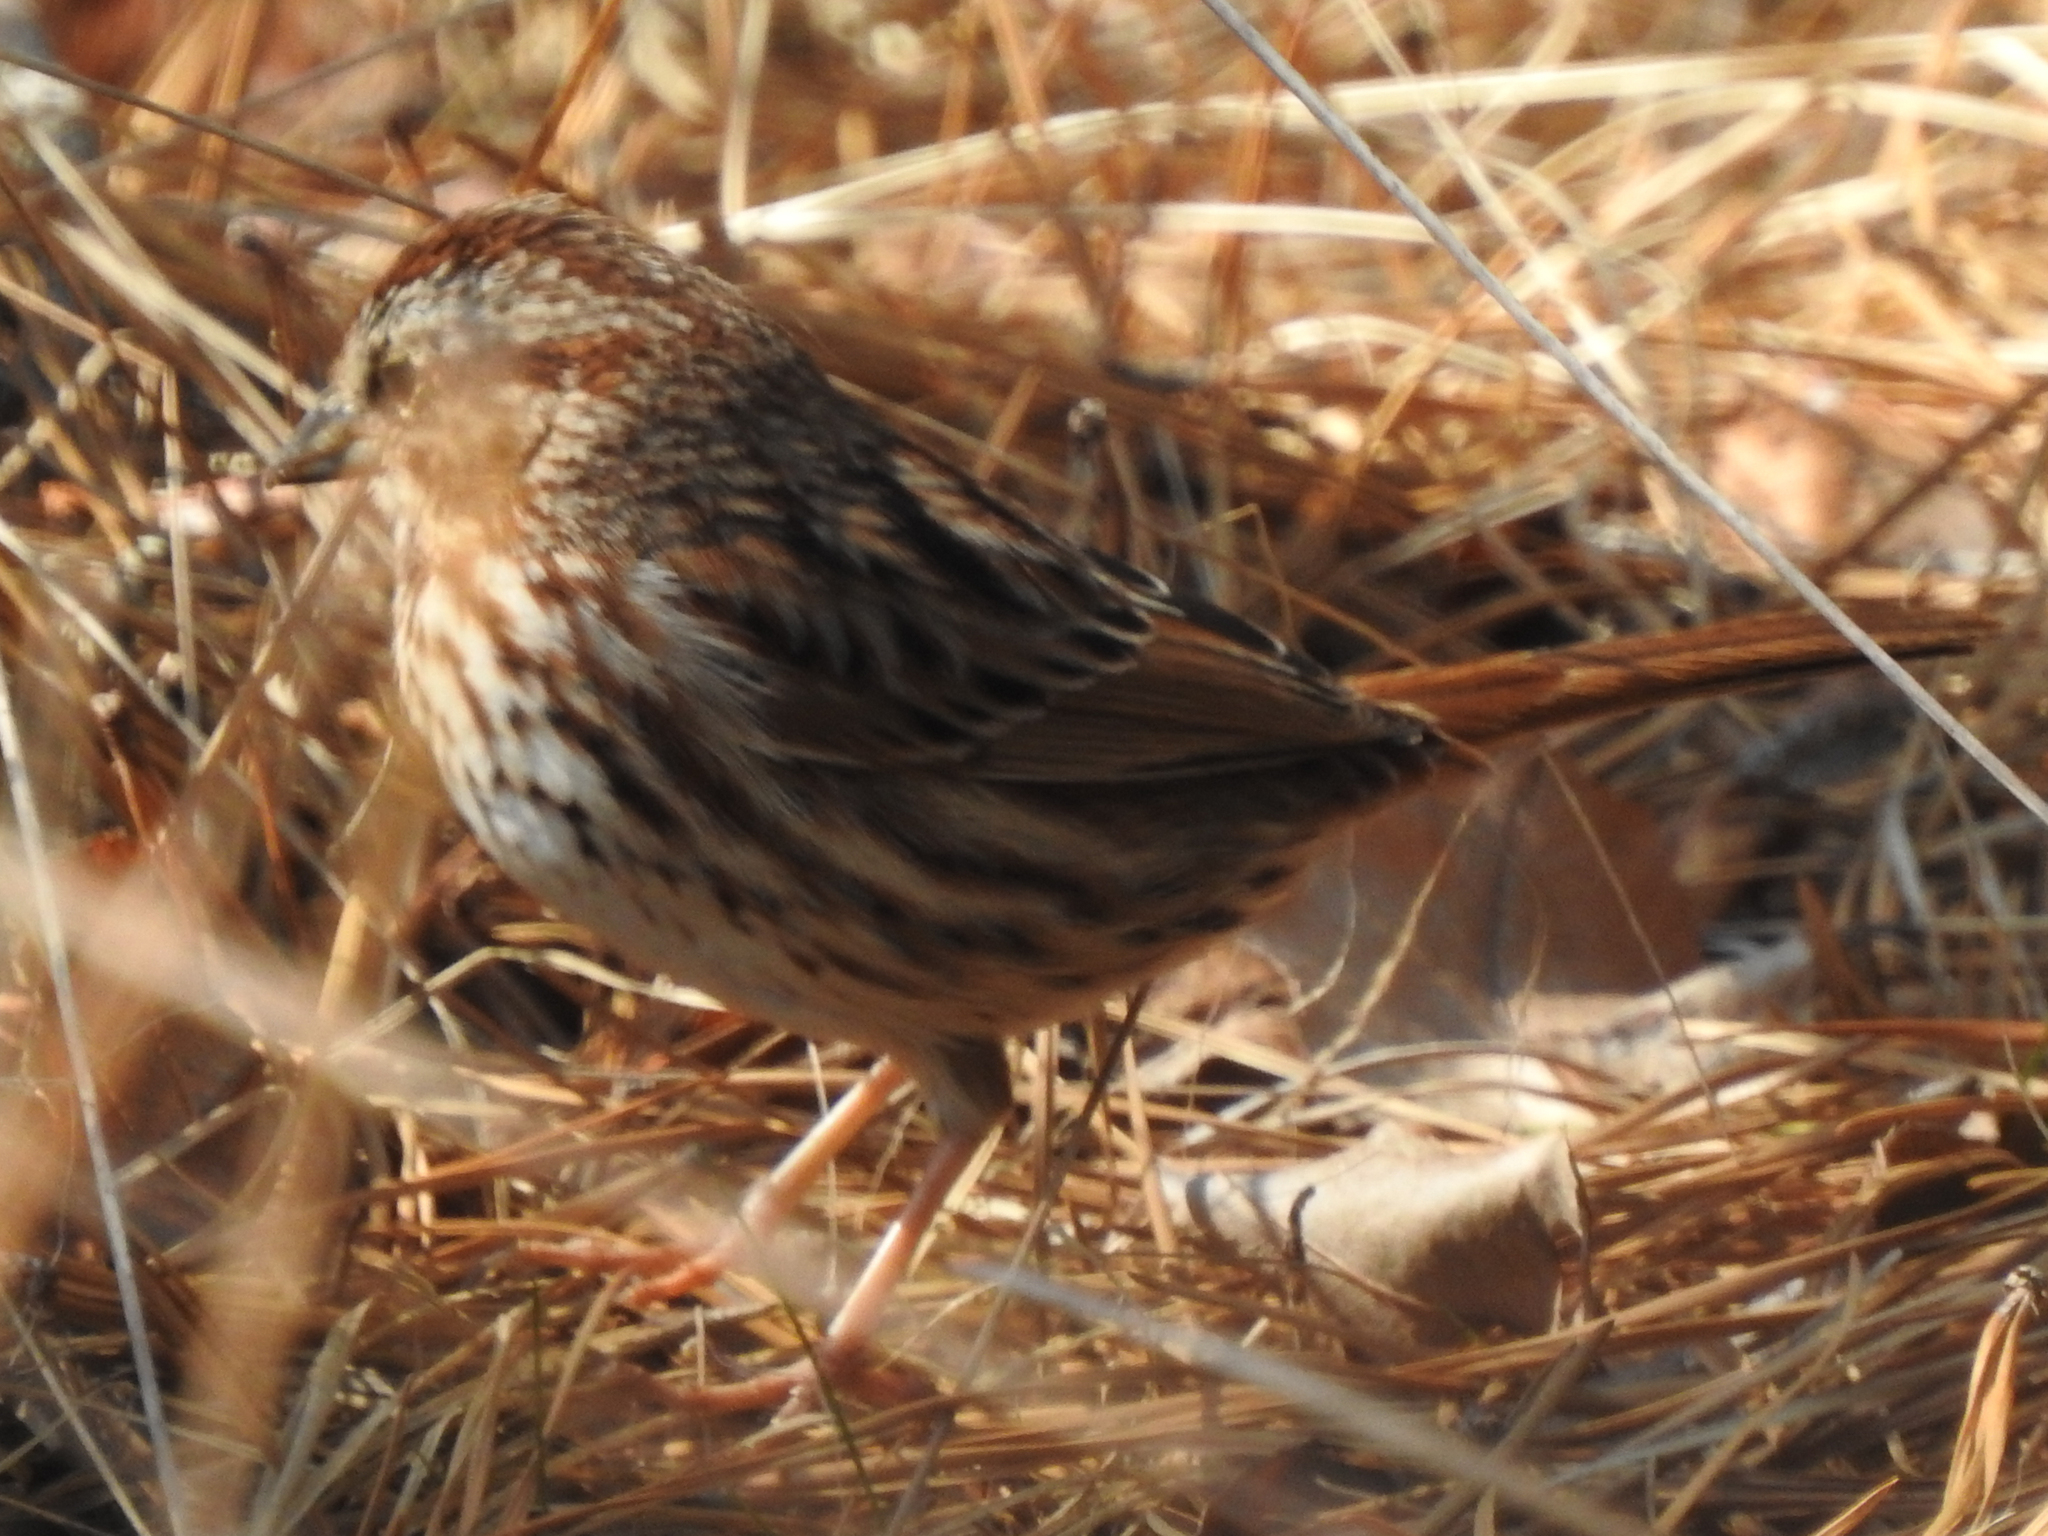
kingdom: Animalia
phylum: Chordata
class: Aves
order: Passeriformes
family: Passerellidae
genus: Melospiza
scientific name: Melospiza melodia
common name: Song sparrow
